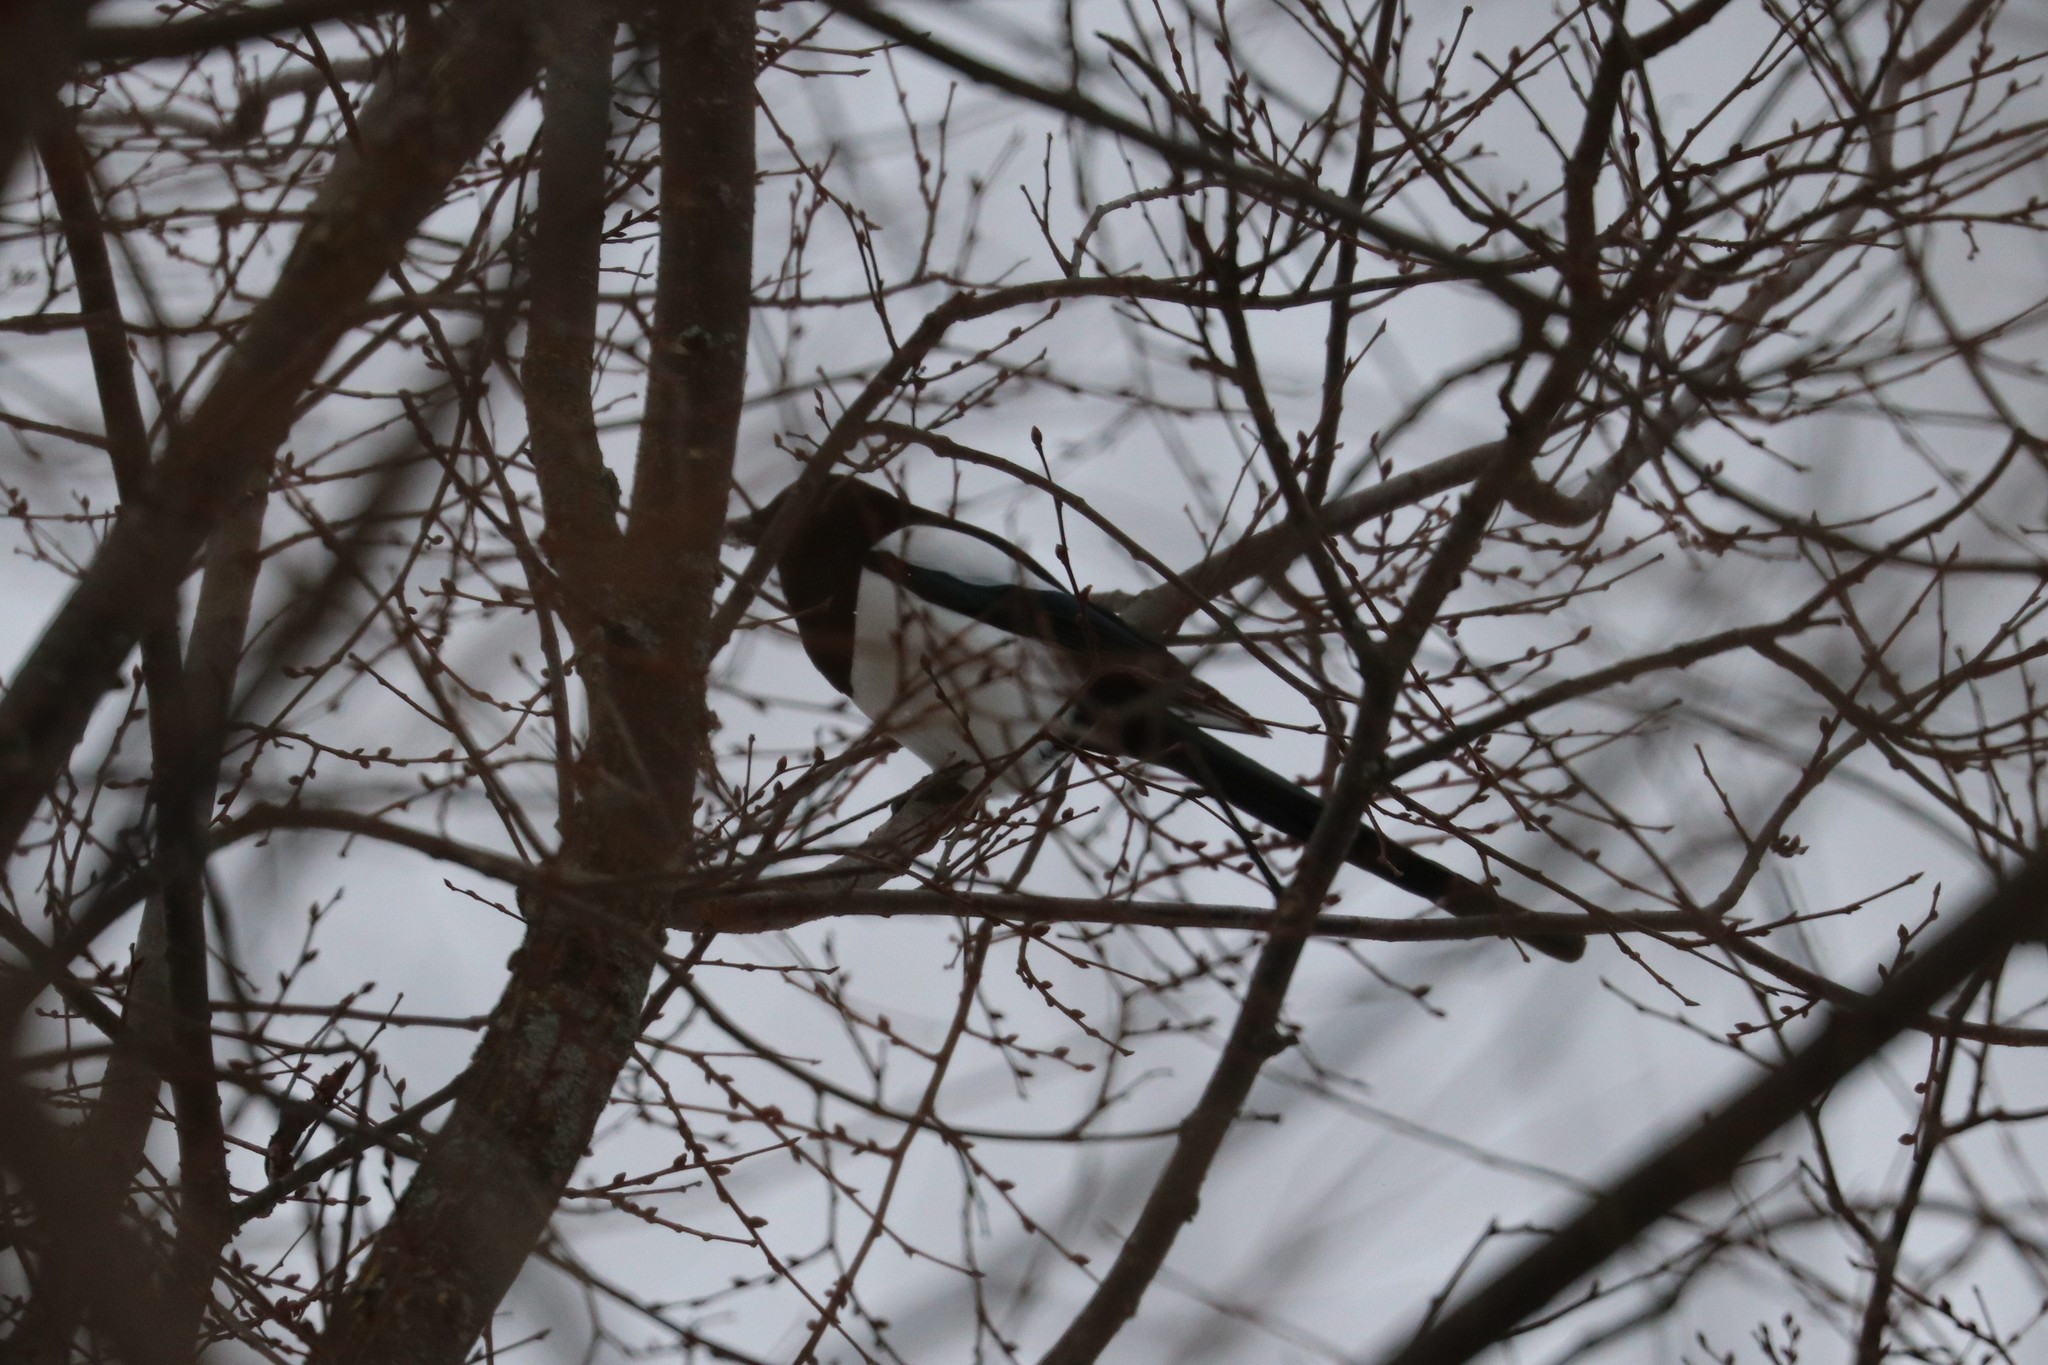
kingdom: Animalia
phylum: Chordata
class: Aves
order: Passeriformes
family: Corvidae
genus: Pica
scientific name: Pica pica
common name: Eurasian magpie
